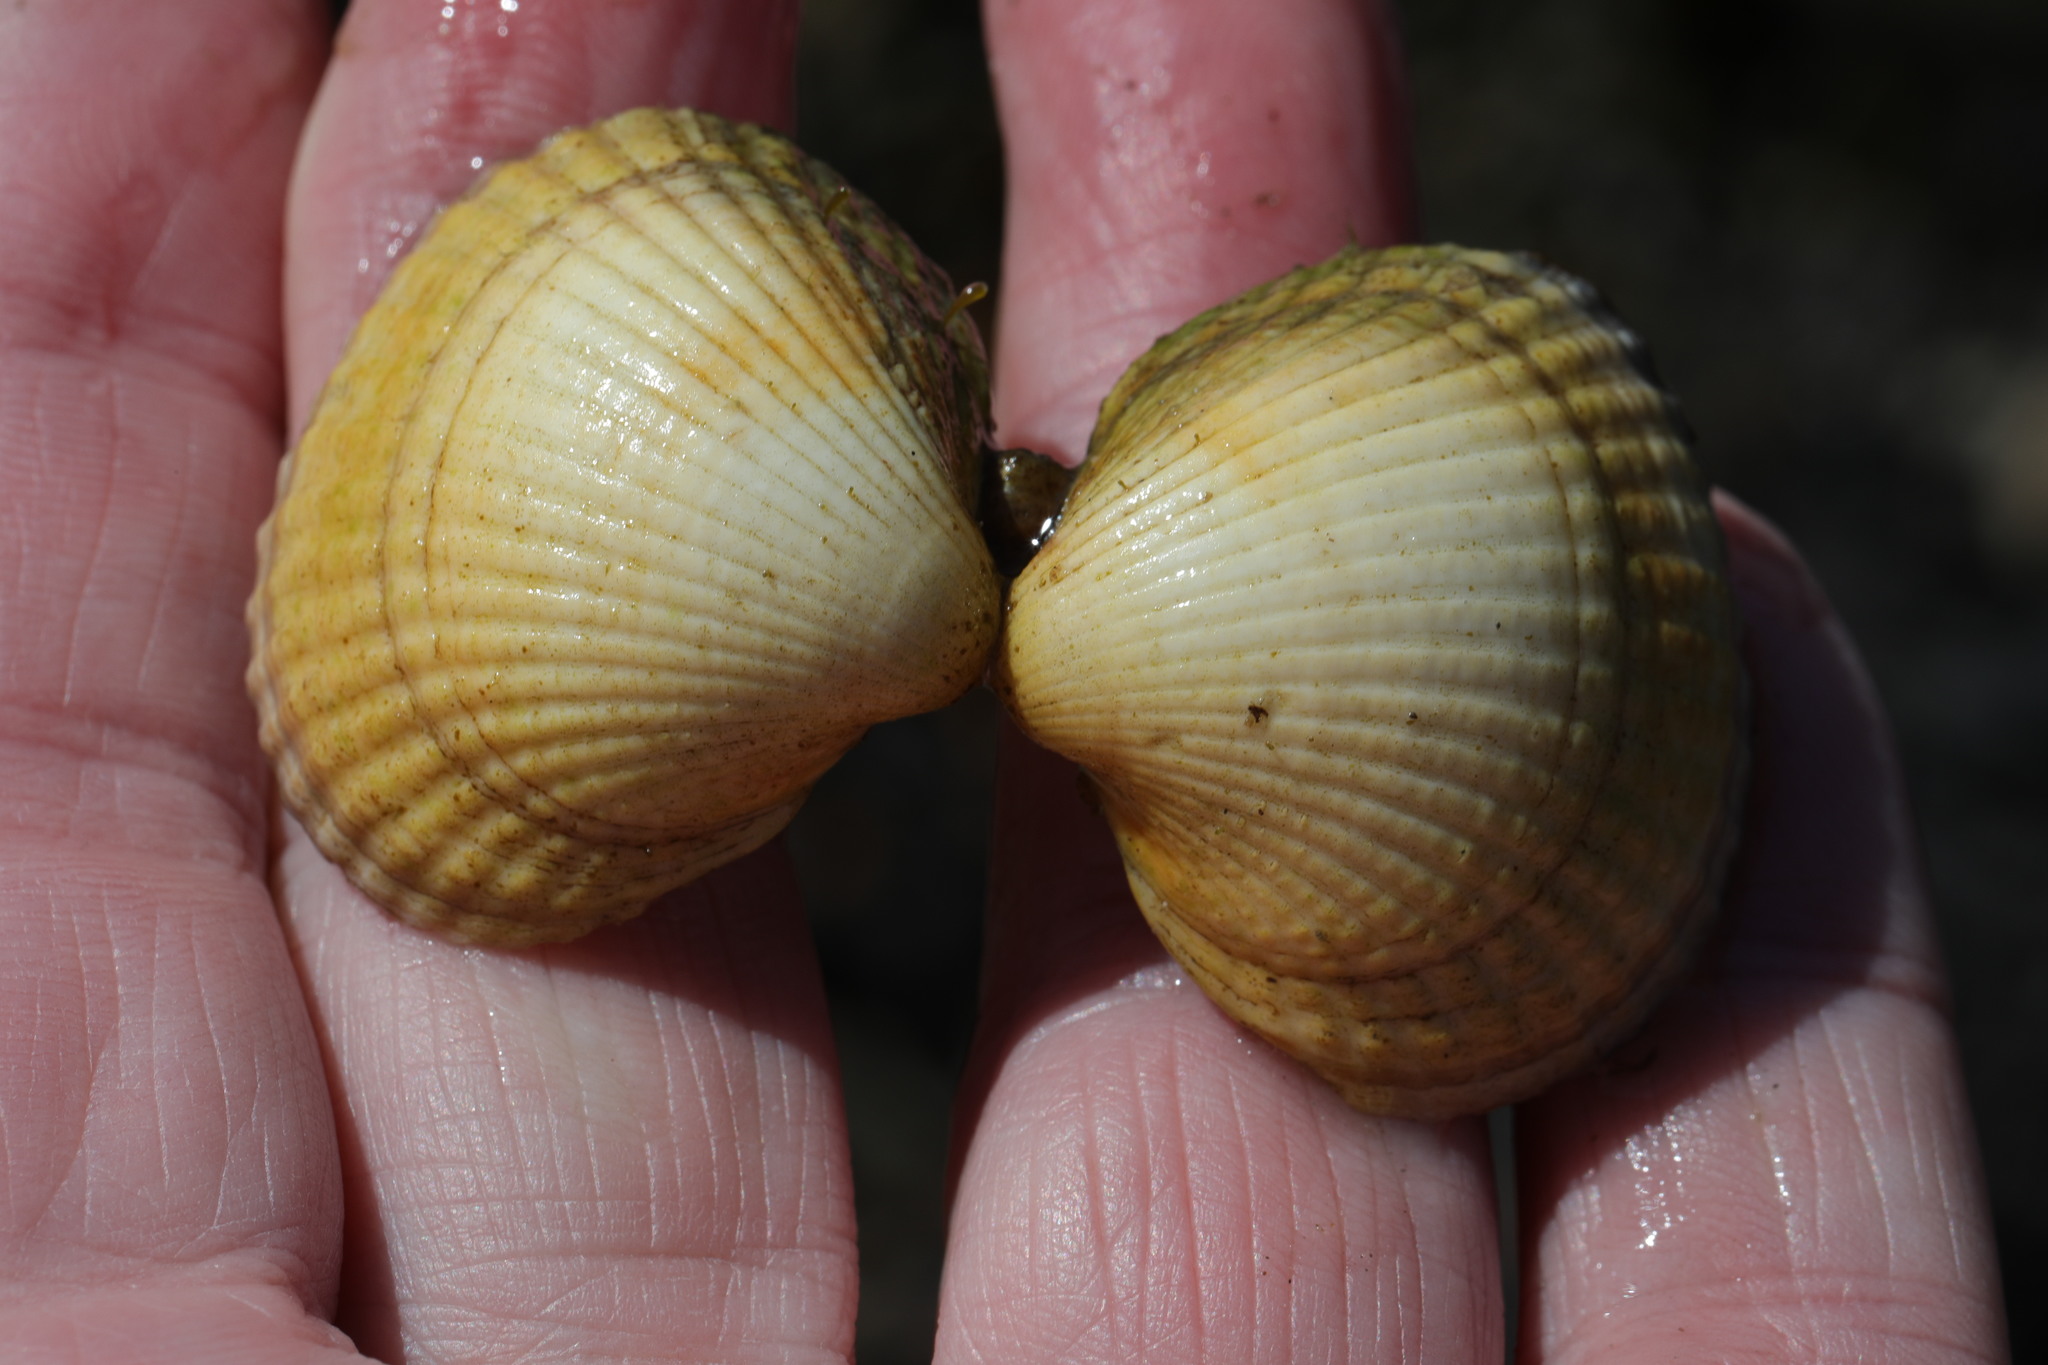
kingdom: Animalia
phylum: Mollusca
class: Bivalvia
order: Cardiida
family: Cardiidae
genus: Cerastoderma
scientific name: Cerastoderma edule
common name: Common cockle
